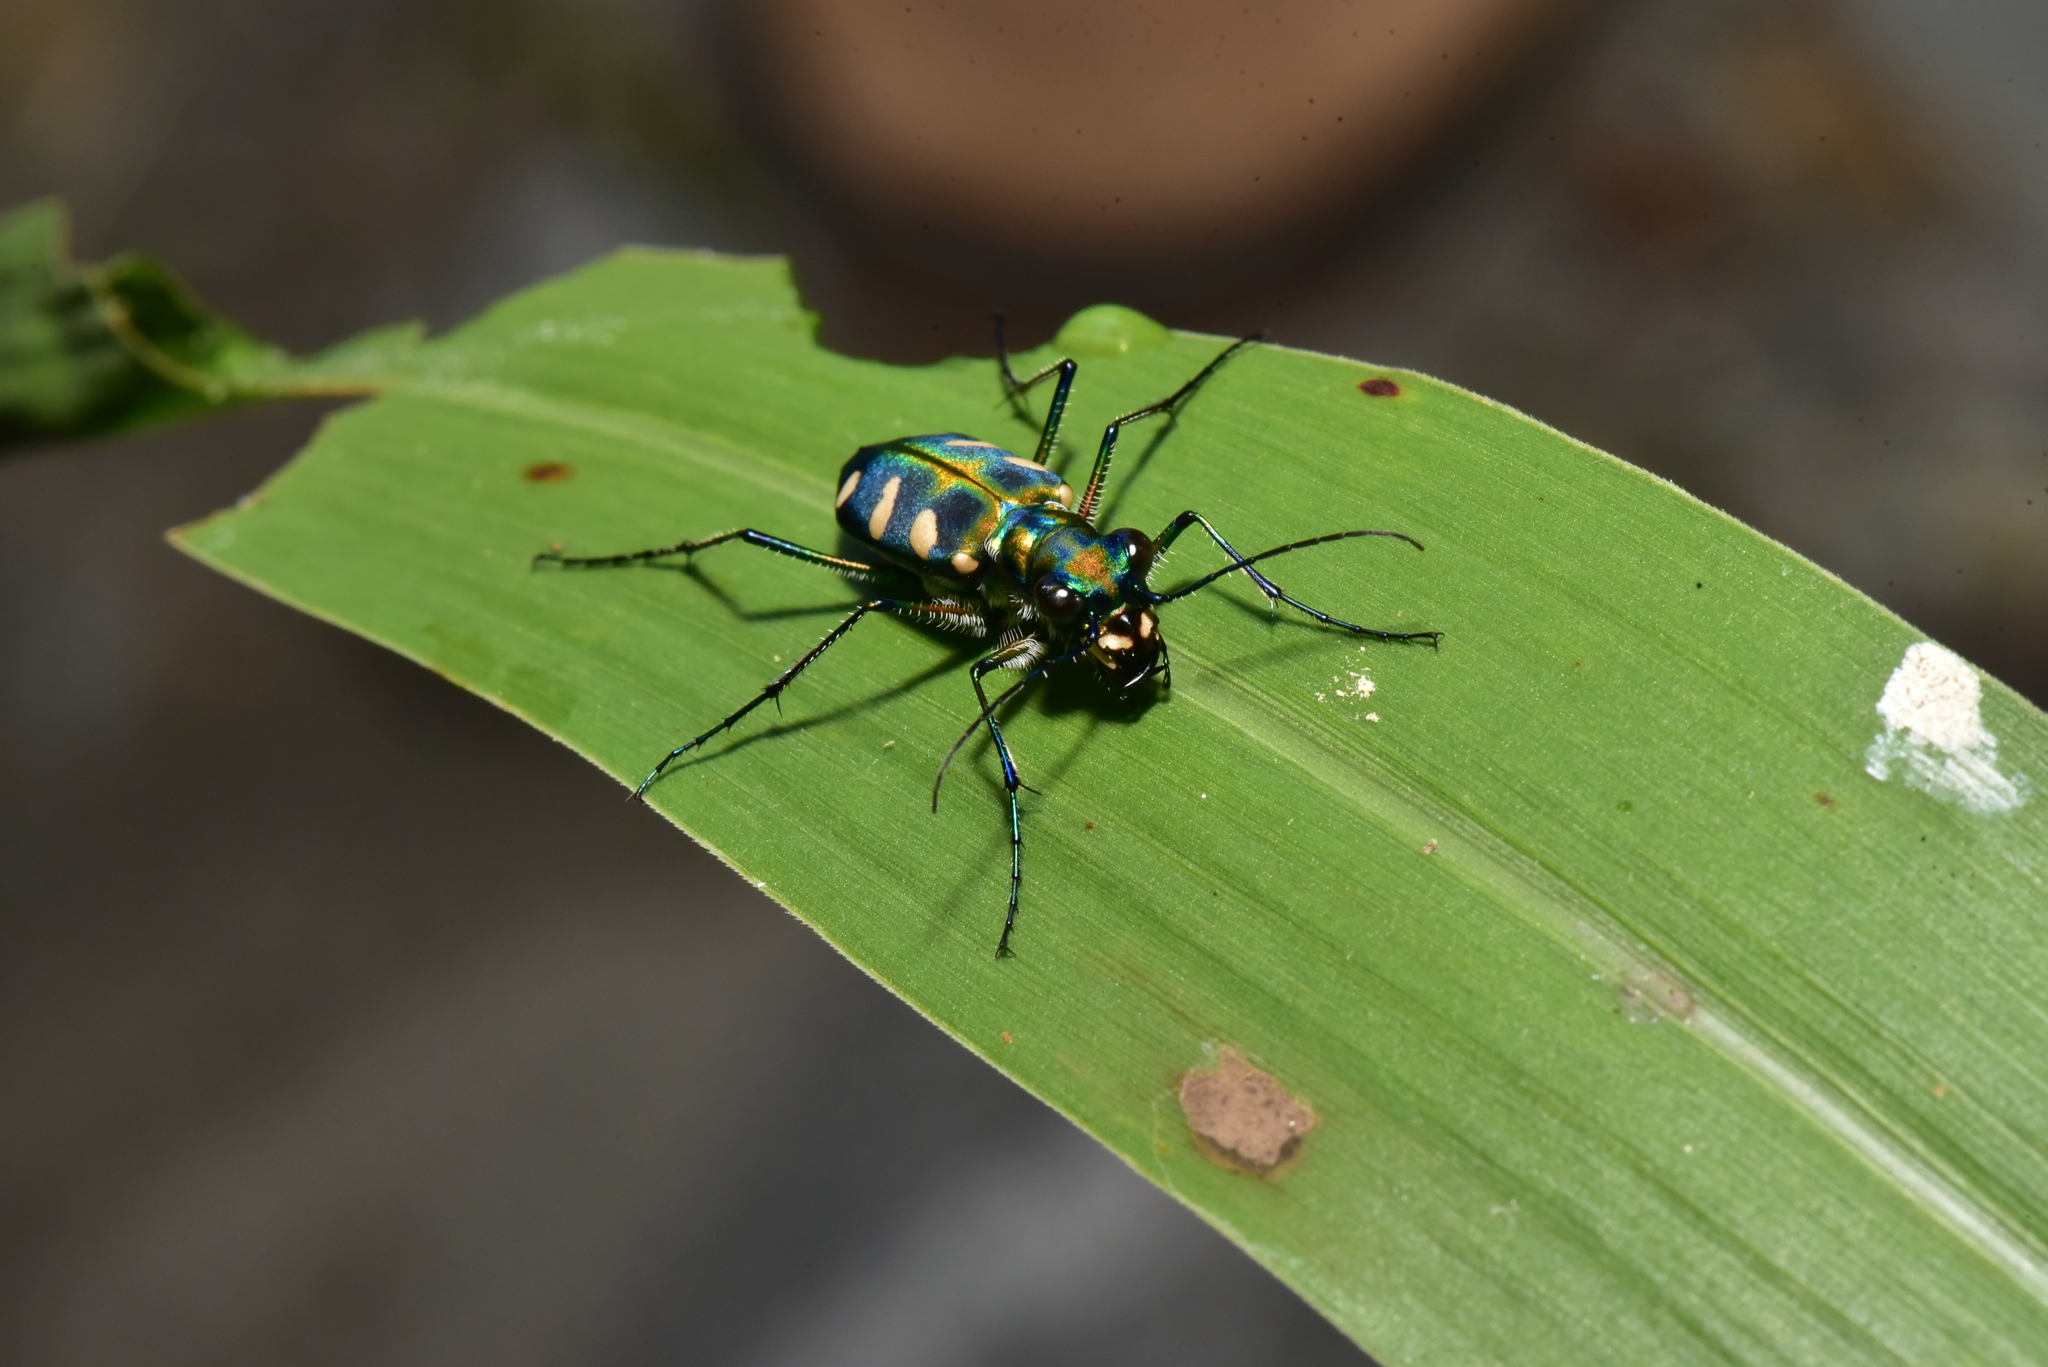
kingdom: Animalia
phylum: Arthropoda
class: Insecta
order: Coleoptera
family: Carabidae
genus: Cicindela
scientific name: Cicindela batesi
